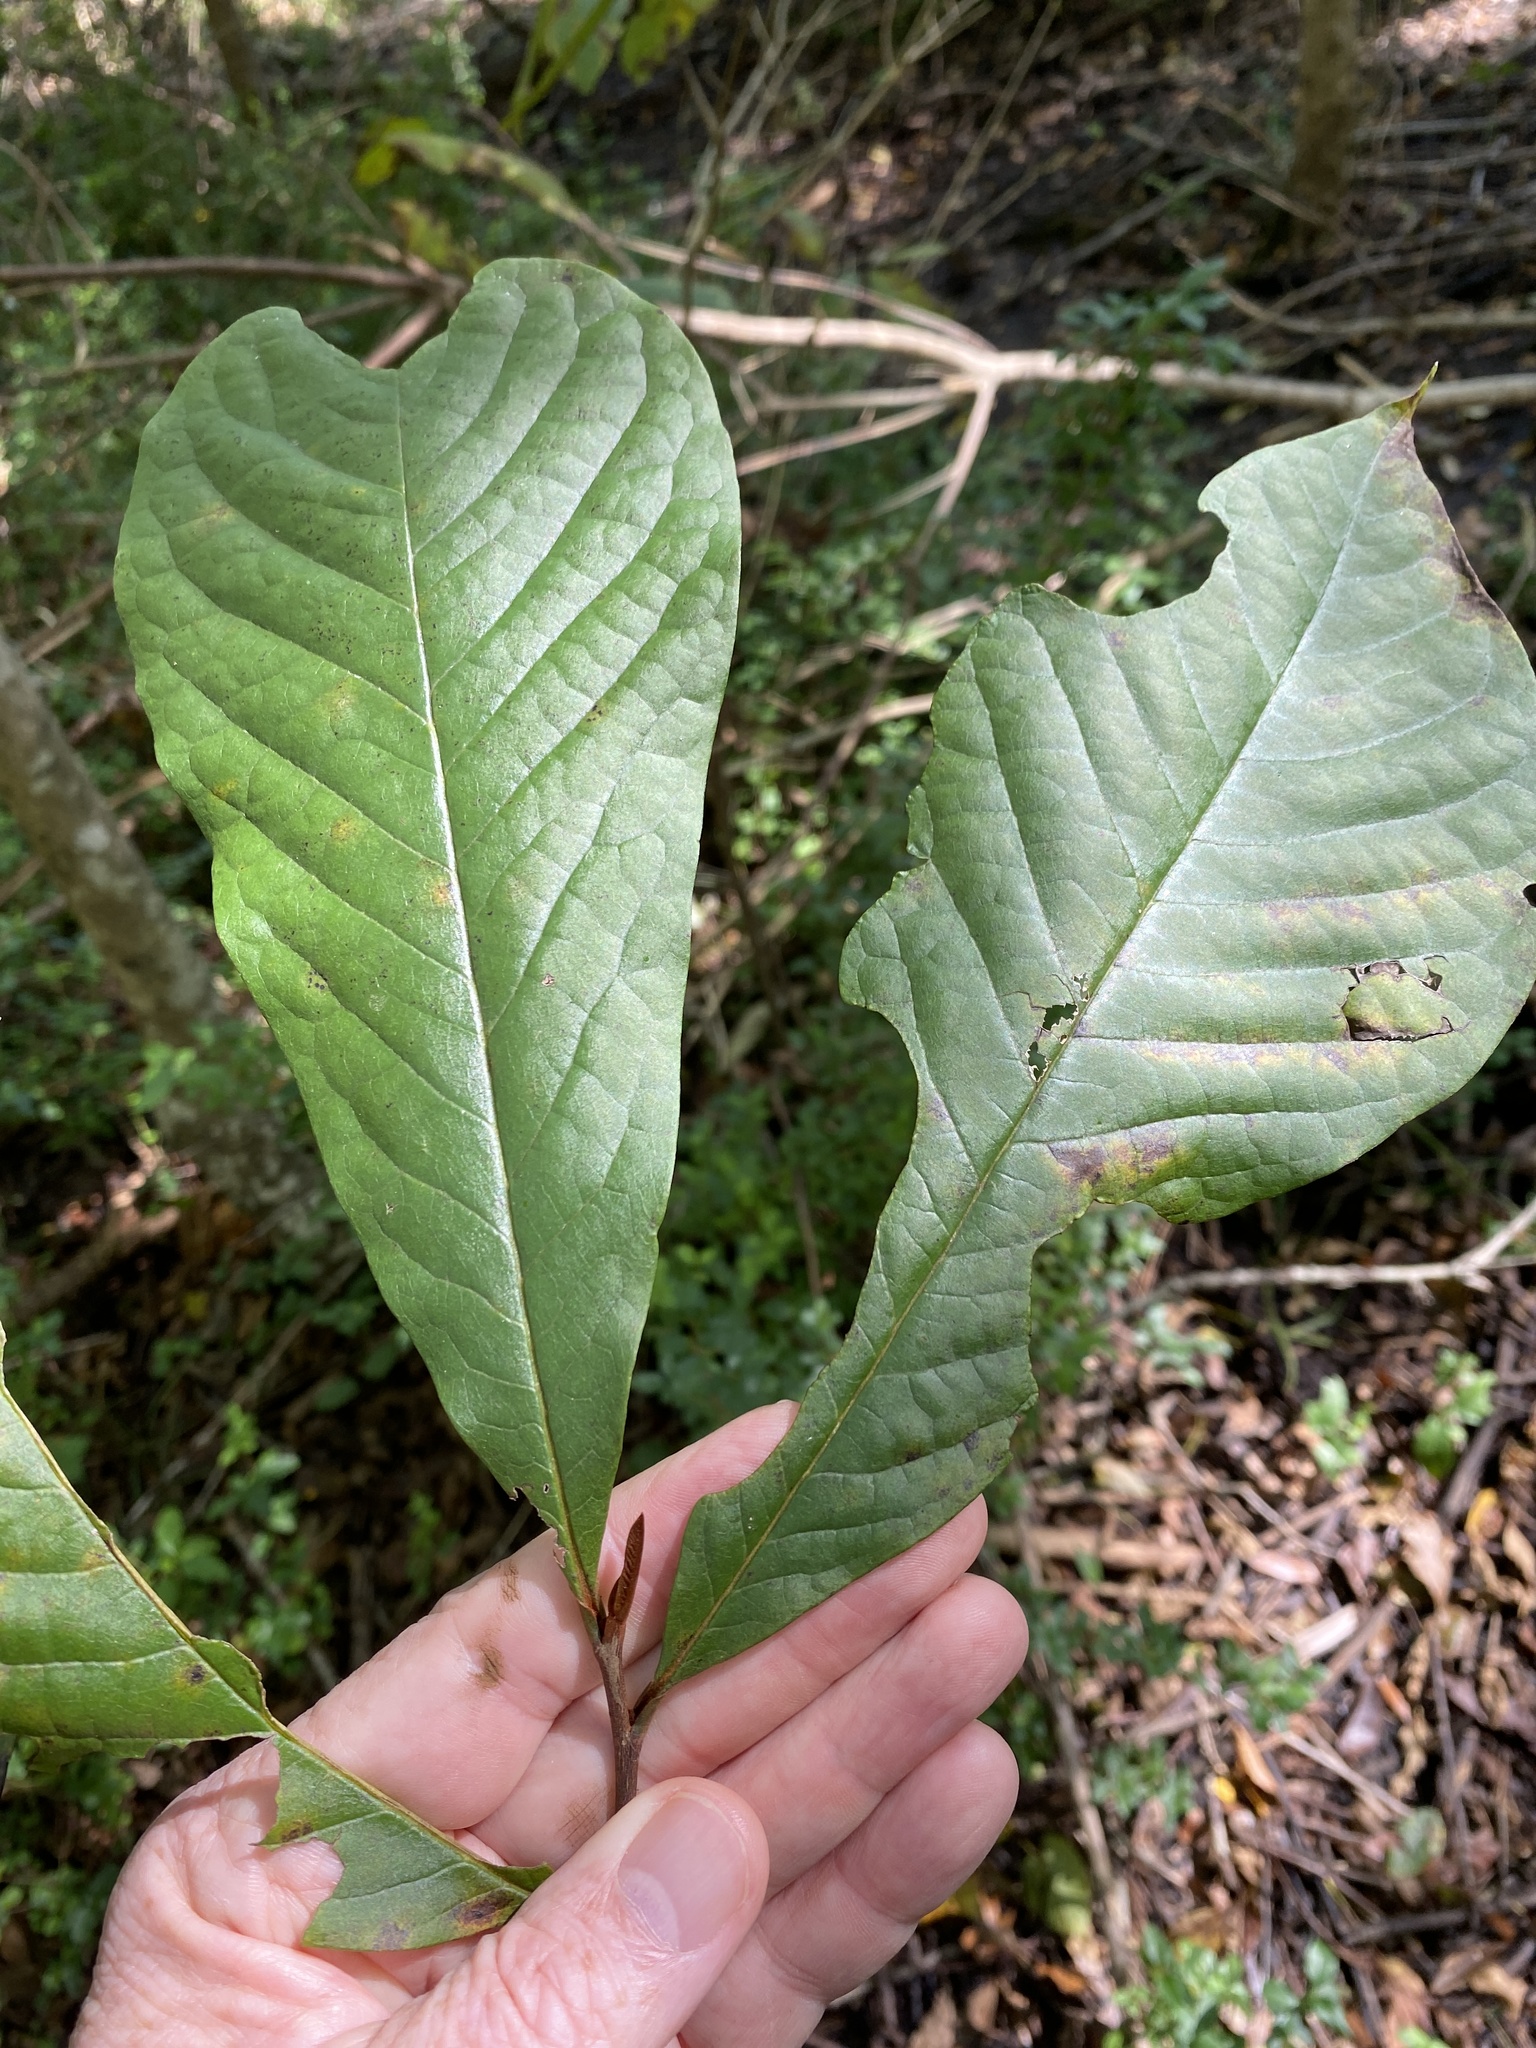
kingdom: Plantae
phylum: Tracheophyta
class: Magnoliopsida
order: Magnoliales
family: Annonaceae
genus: Asimina
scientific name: Asimina triloba
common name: Dog-banana
